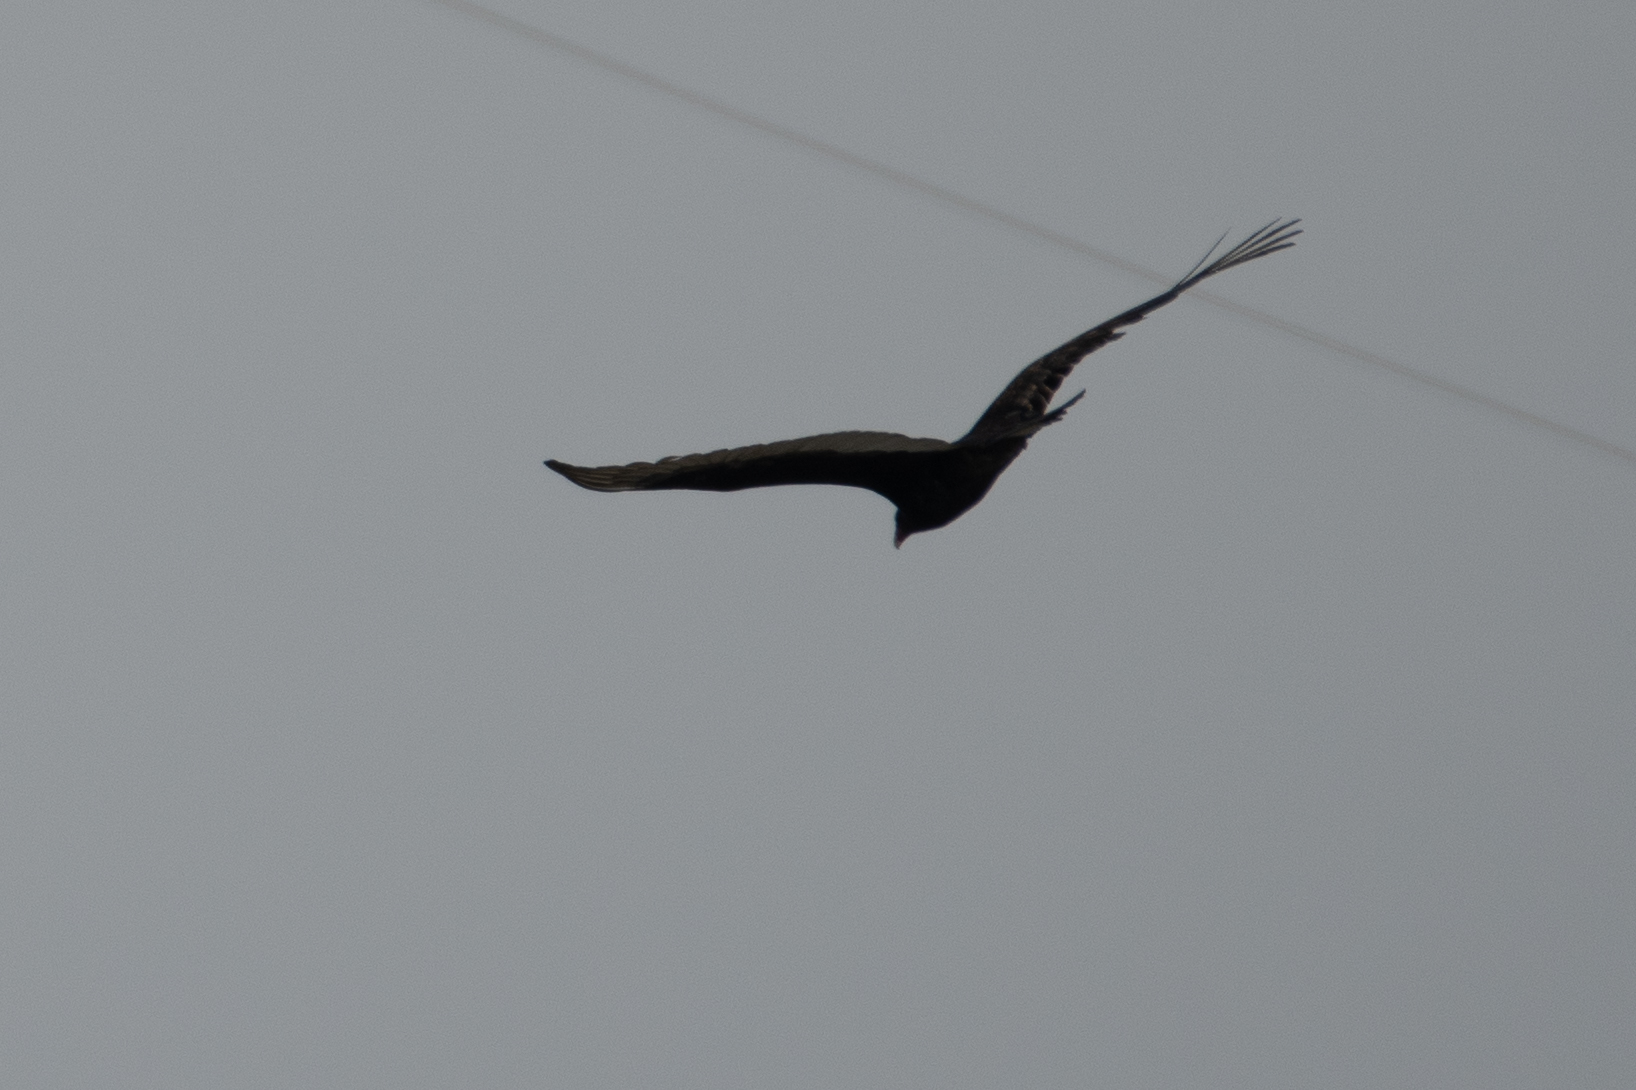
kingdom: Animalia
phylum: Chordata
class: Aves
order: Accipitriformes
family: Cathartidae
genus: Cathartes
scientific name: Cathartes aura
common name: Turkey vulture
